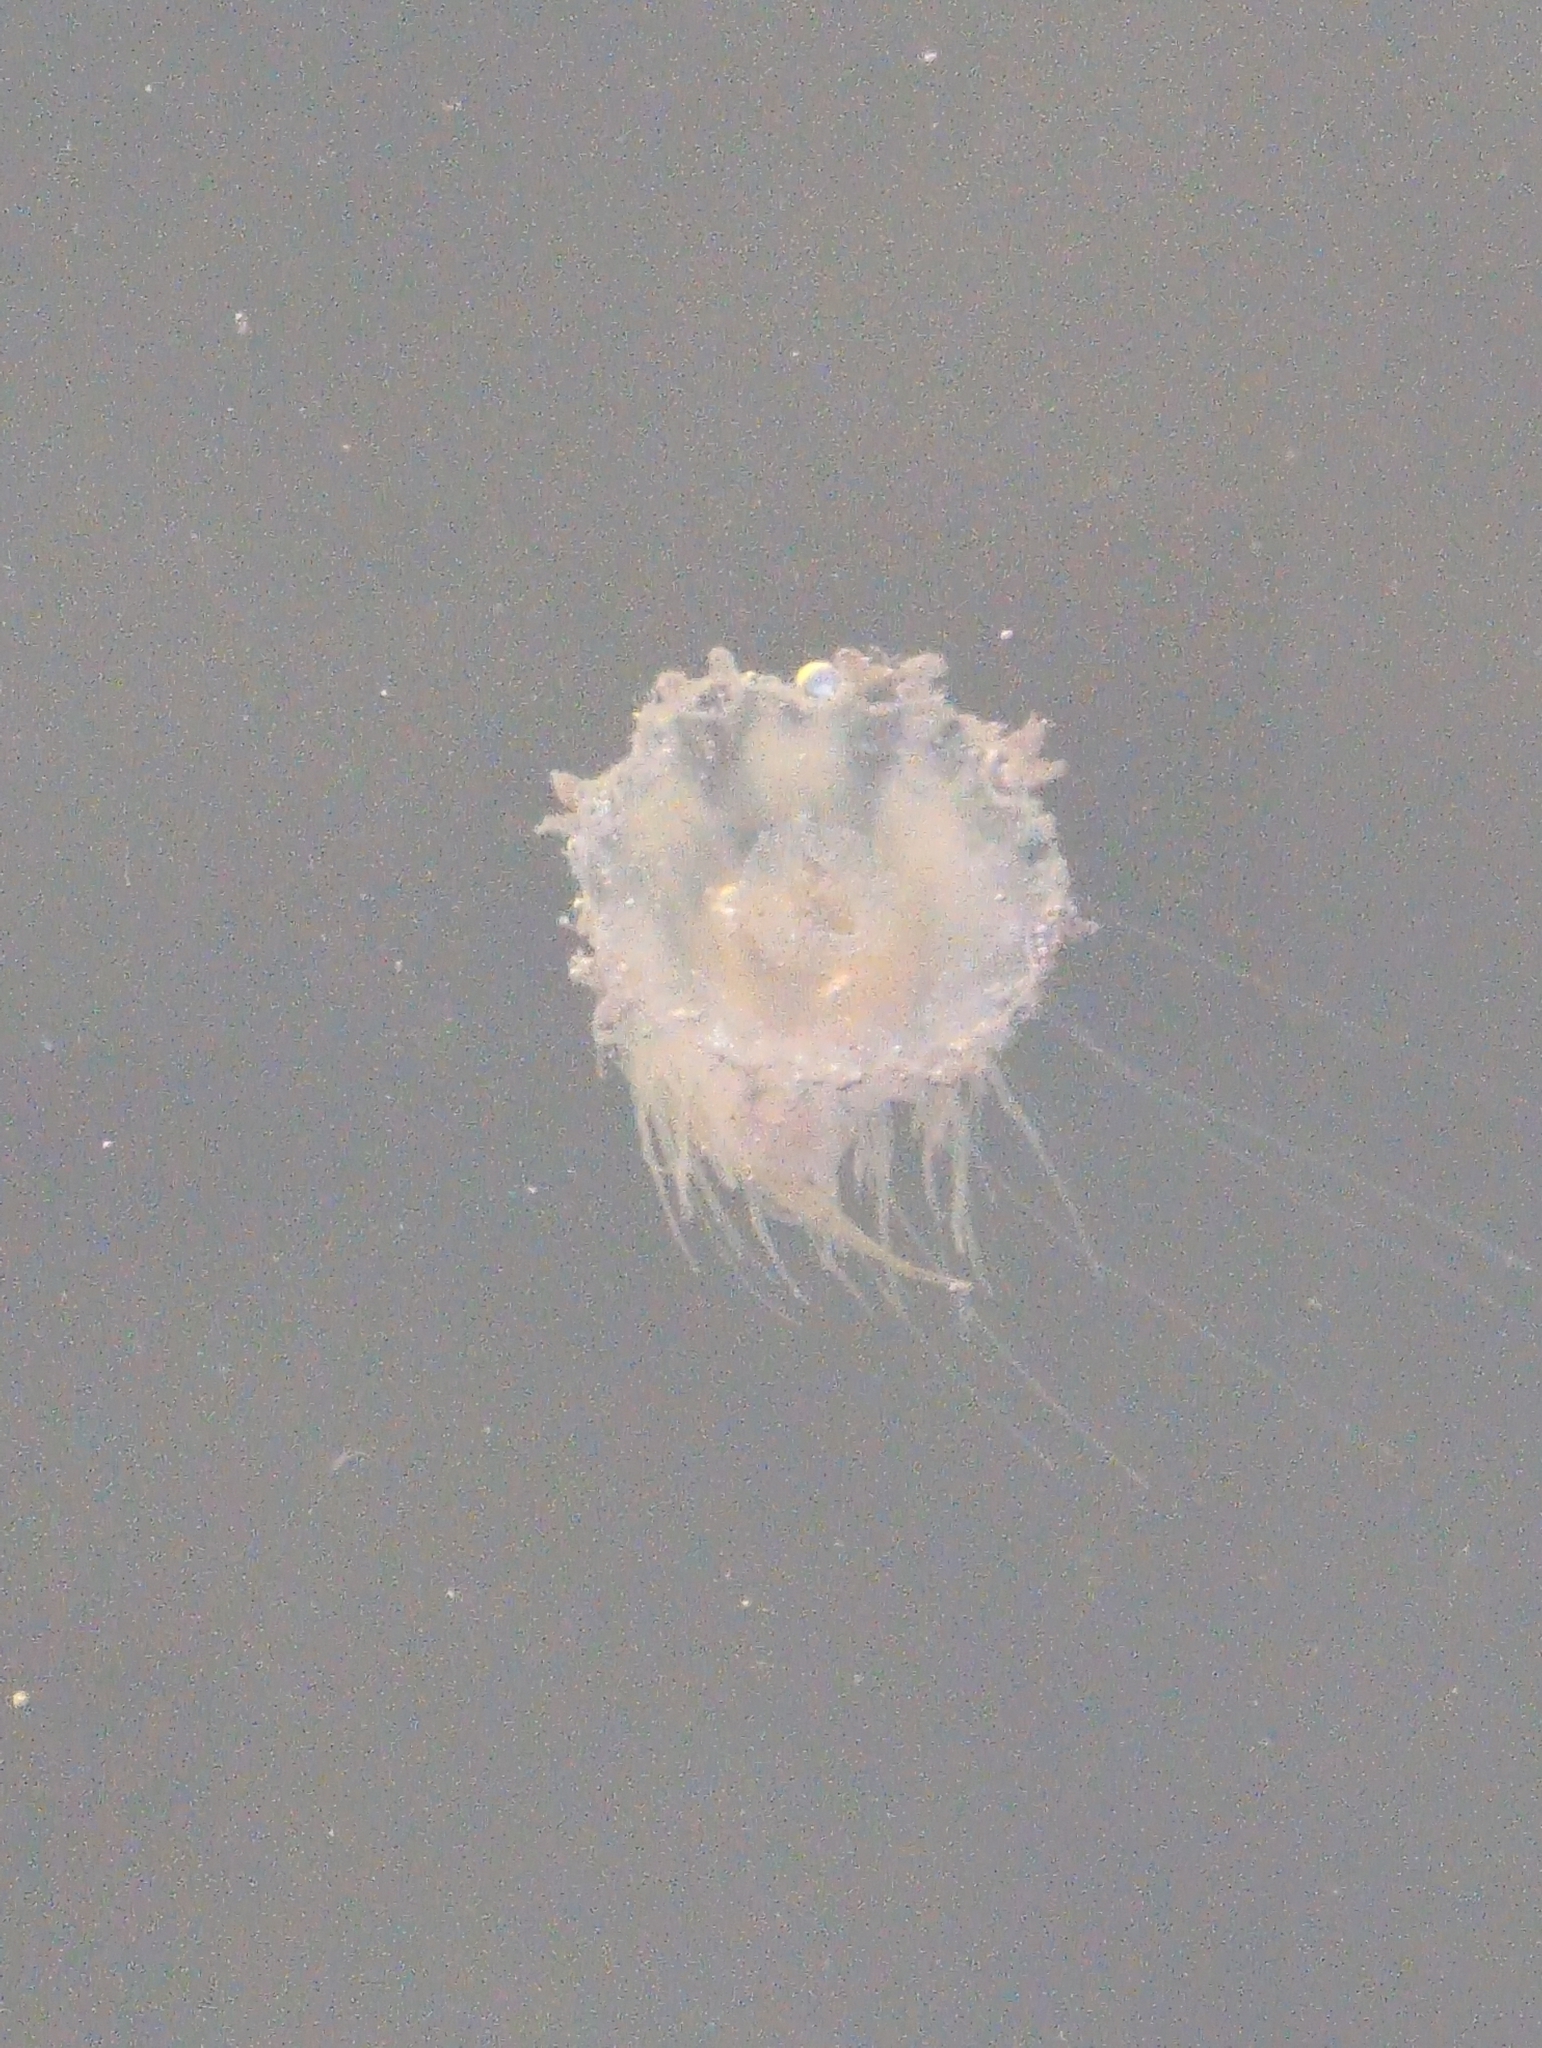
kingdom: Animalia
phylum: Cnidaria
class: Scyphozoa
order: Semaeostomeae
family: Cyaneidae
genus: Cyanea
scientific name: Cyanea fulva
